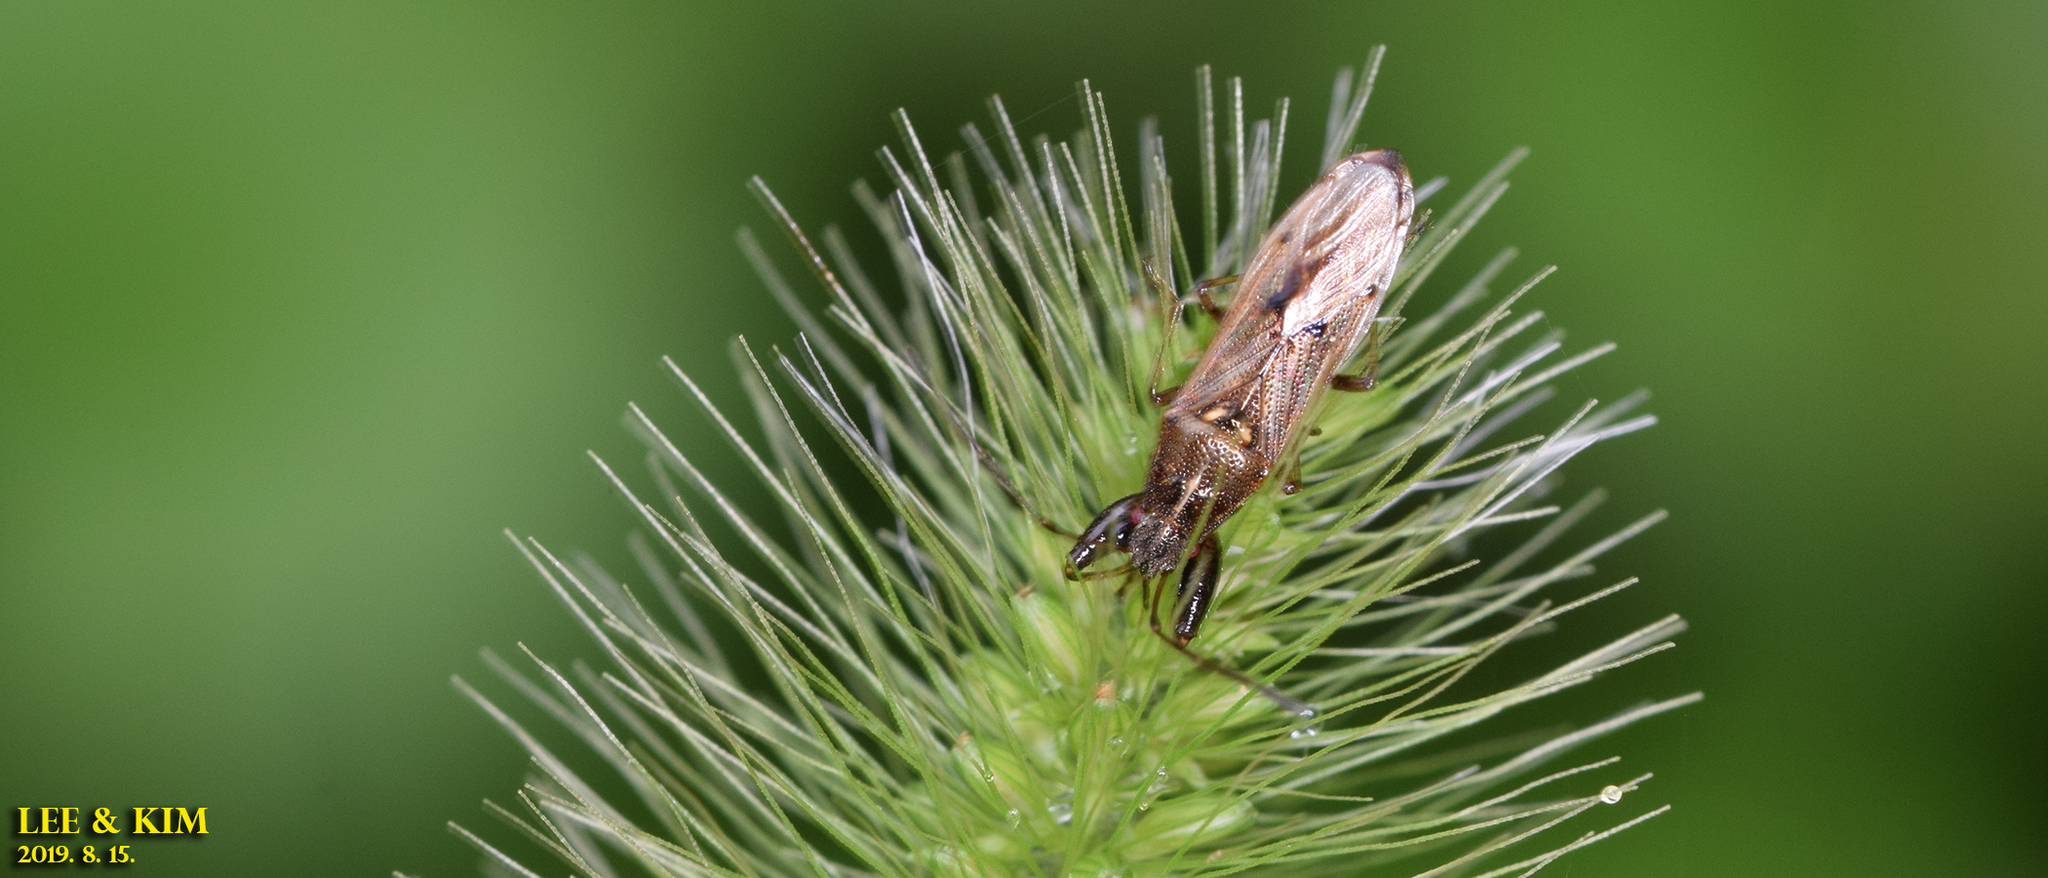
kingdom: Animalia
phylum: Arthropoda
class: Insecta
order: Hemiptera
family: Pachygronthidae
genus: Pachygrontha
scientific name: Pachygrontha antennata
